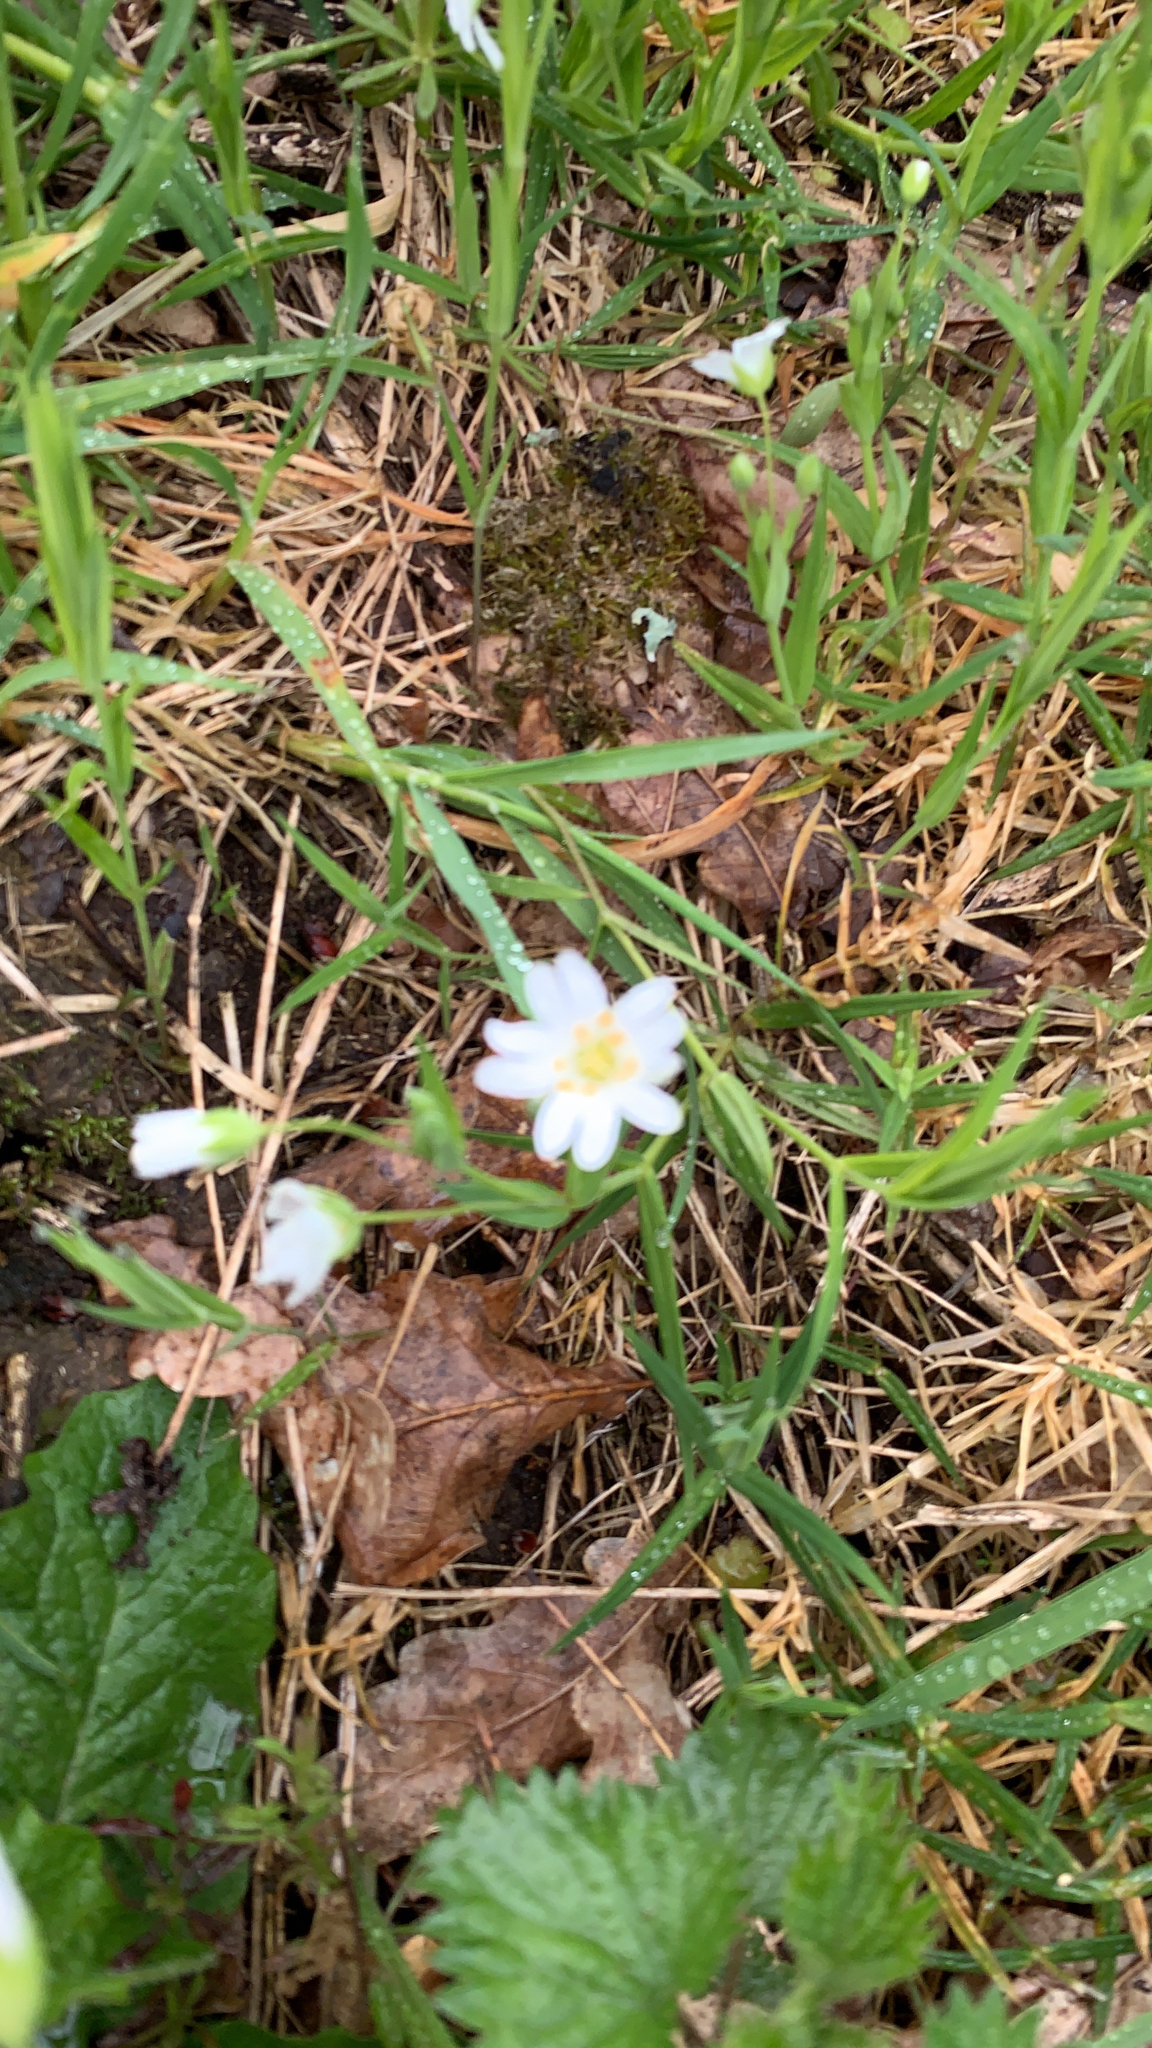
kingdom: Plantae
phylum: Tracheophyta
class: Magnoliopsida
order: Caryophyllales
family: Caryophyllaceae
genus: Rabelera
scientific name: Rabelera holostea
